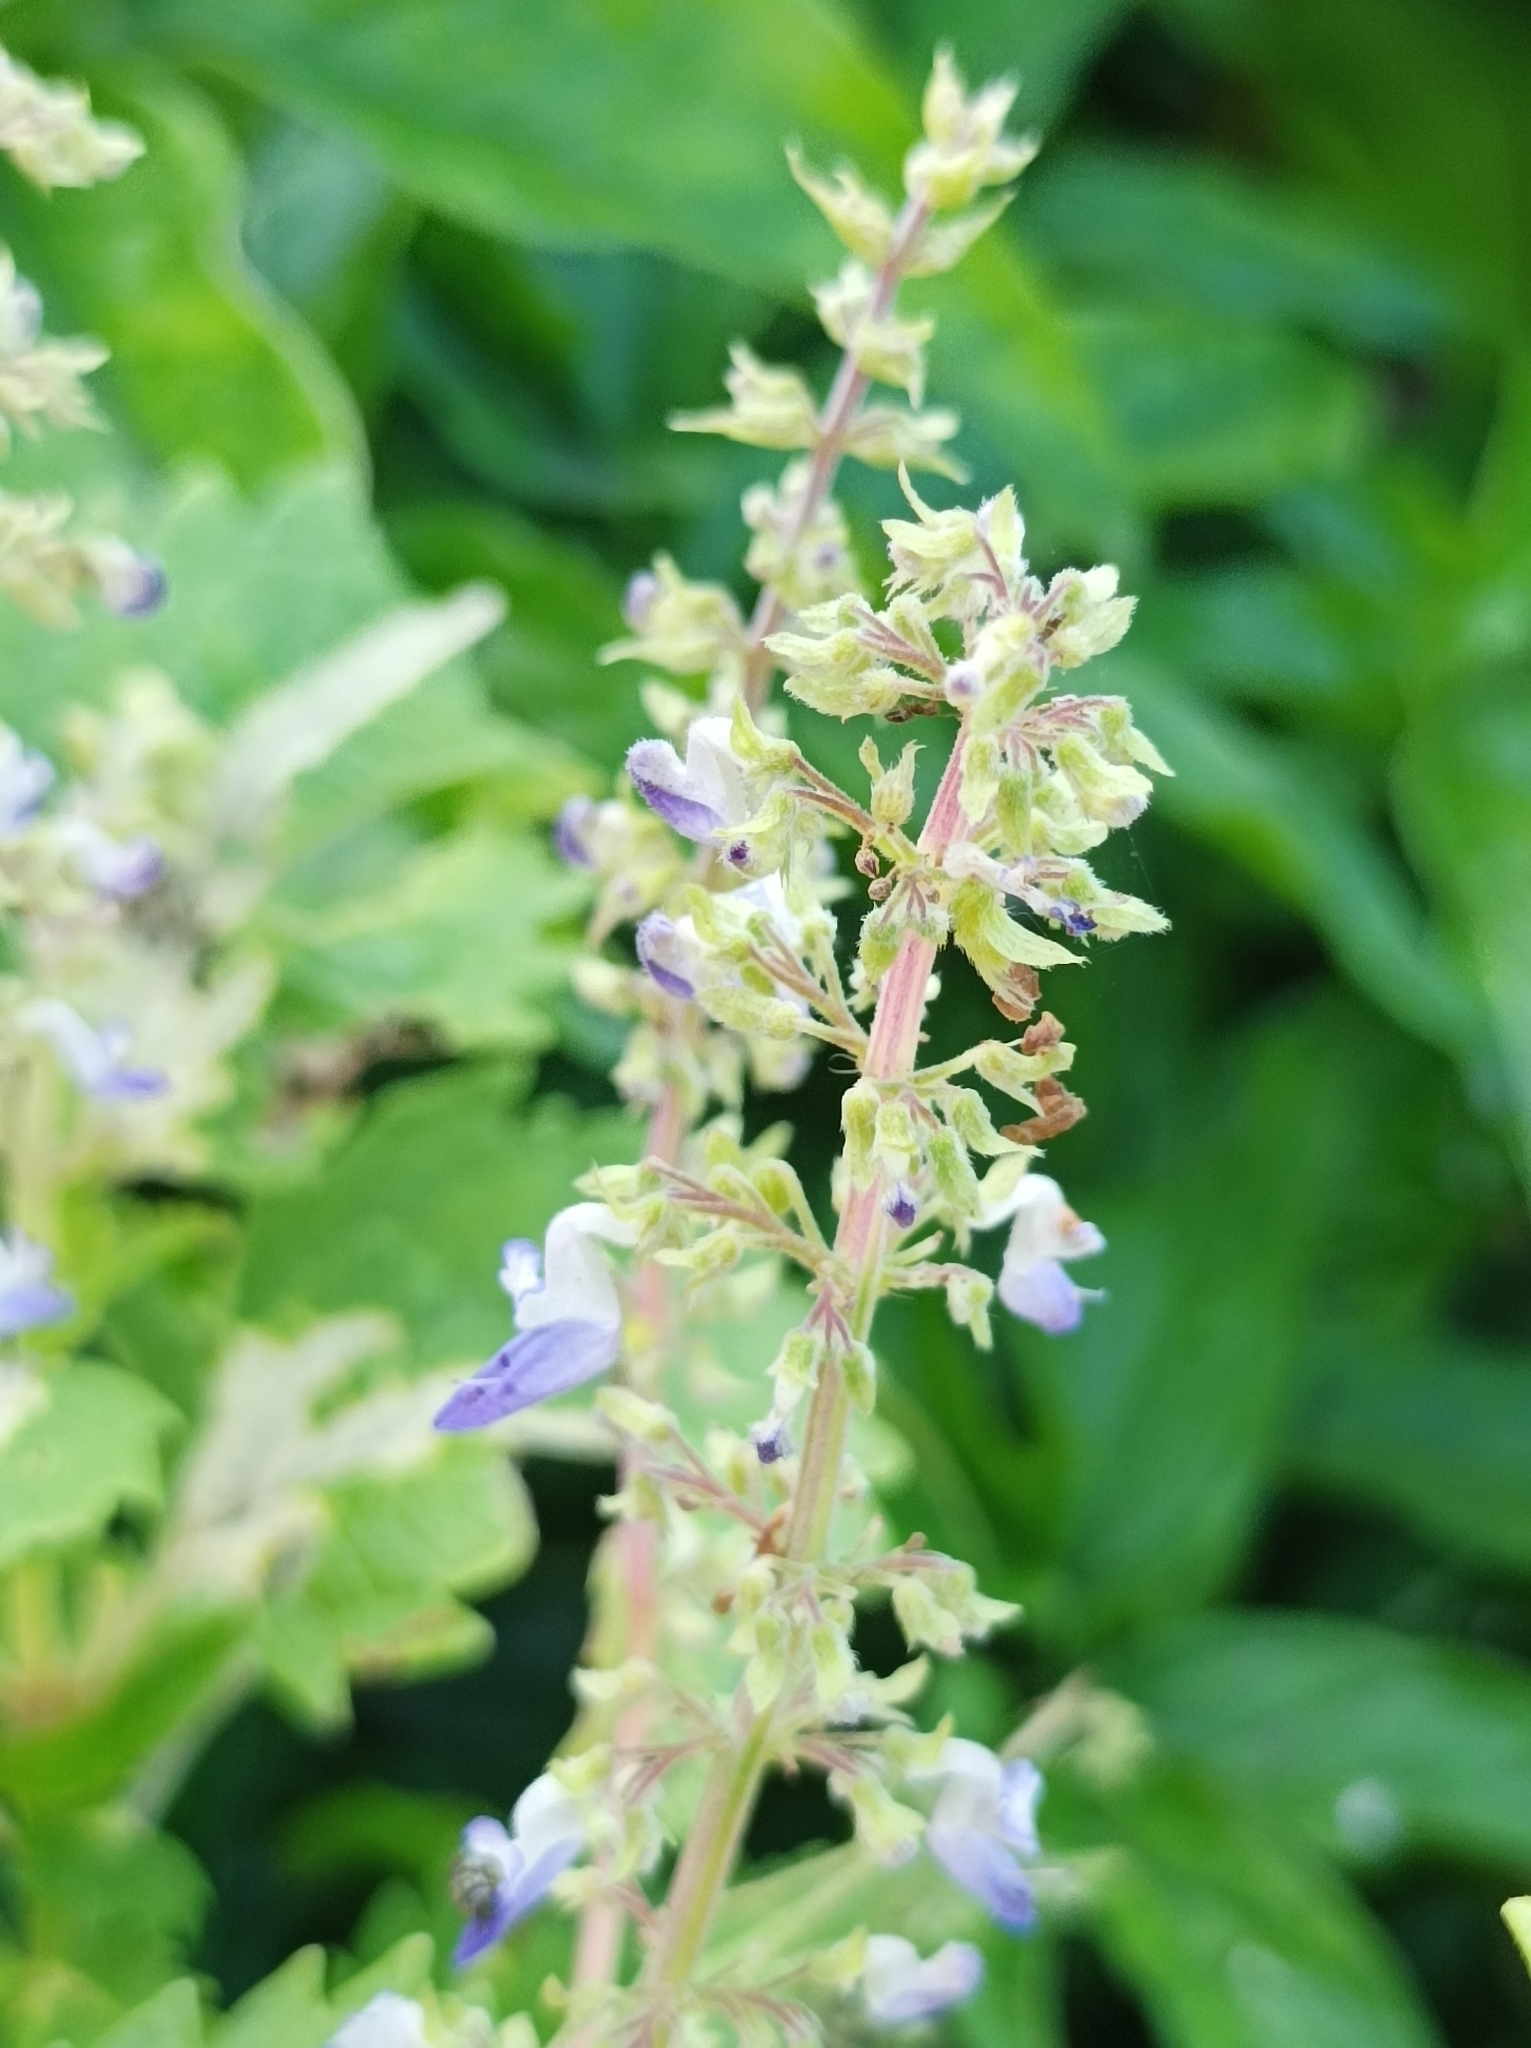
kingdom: Plantae
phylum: Tracheophyta
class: Magnoliopsida
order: Lamiales
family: Lamiaceae
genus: Coleus
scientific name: Coleus scutellarioides
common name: Coleus
